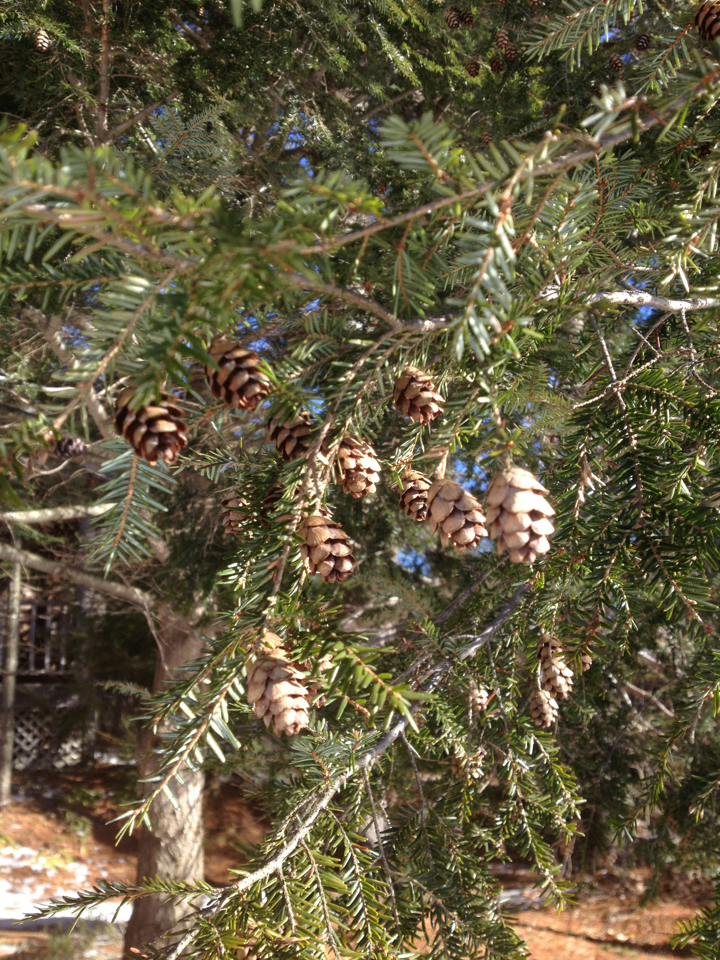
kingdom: Plantae
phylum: Tracheophyta
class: Pinopsida
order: Pinales
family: Pinaceae
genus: Tsuga
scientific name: Tsuga canadensis
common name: Eastern hemlock
